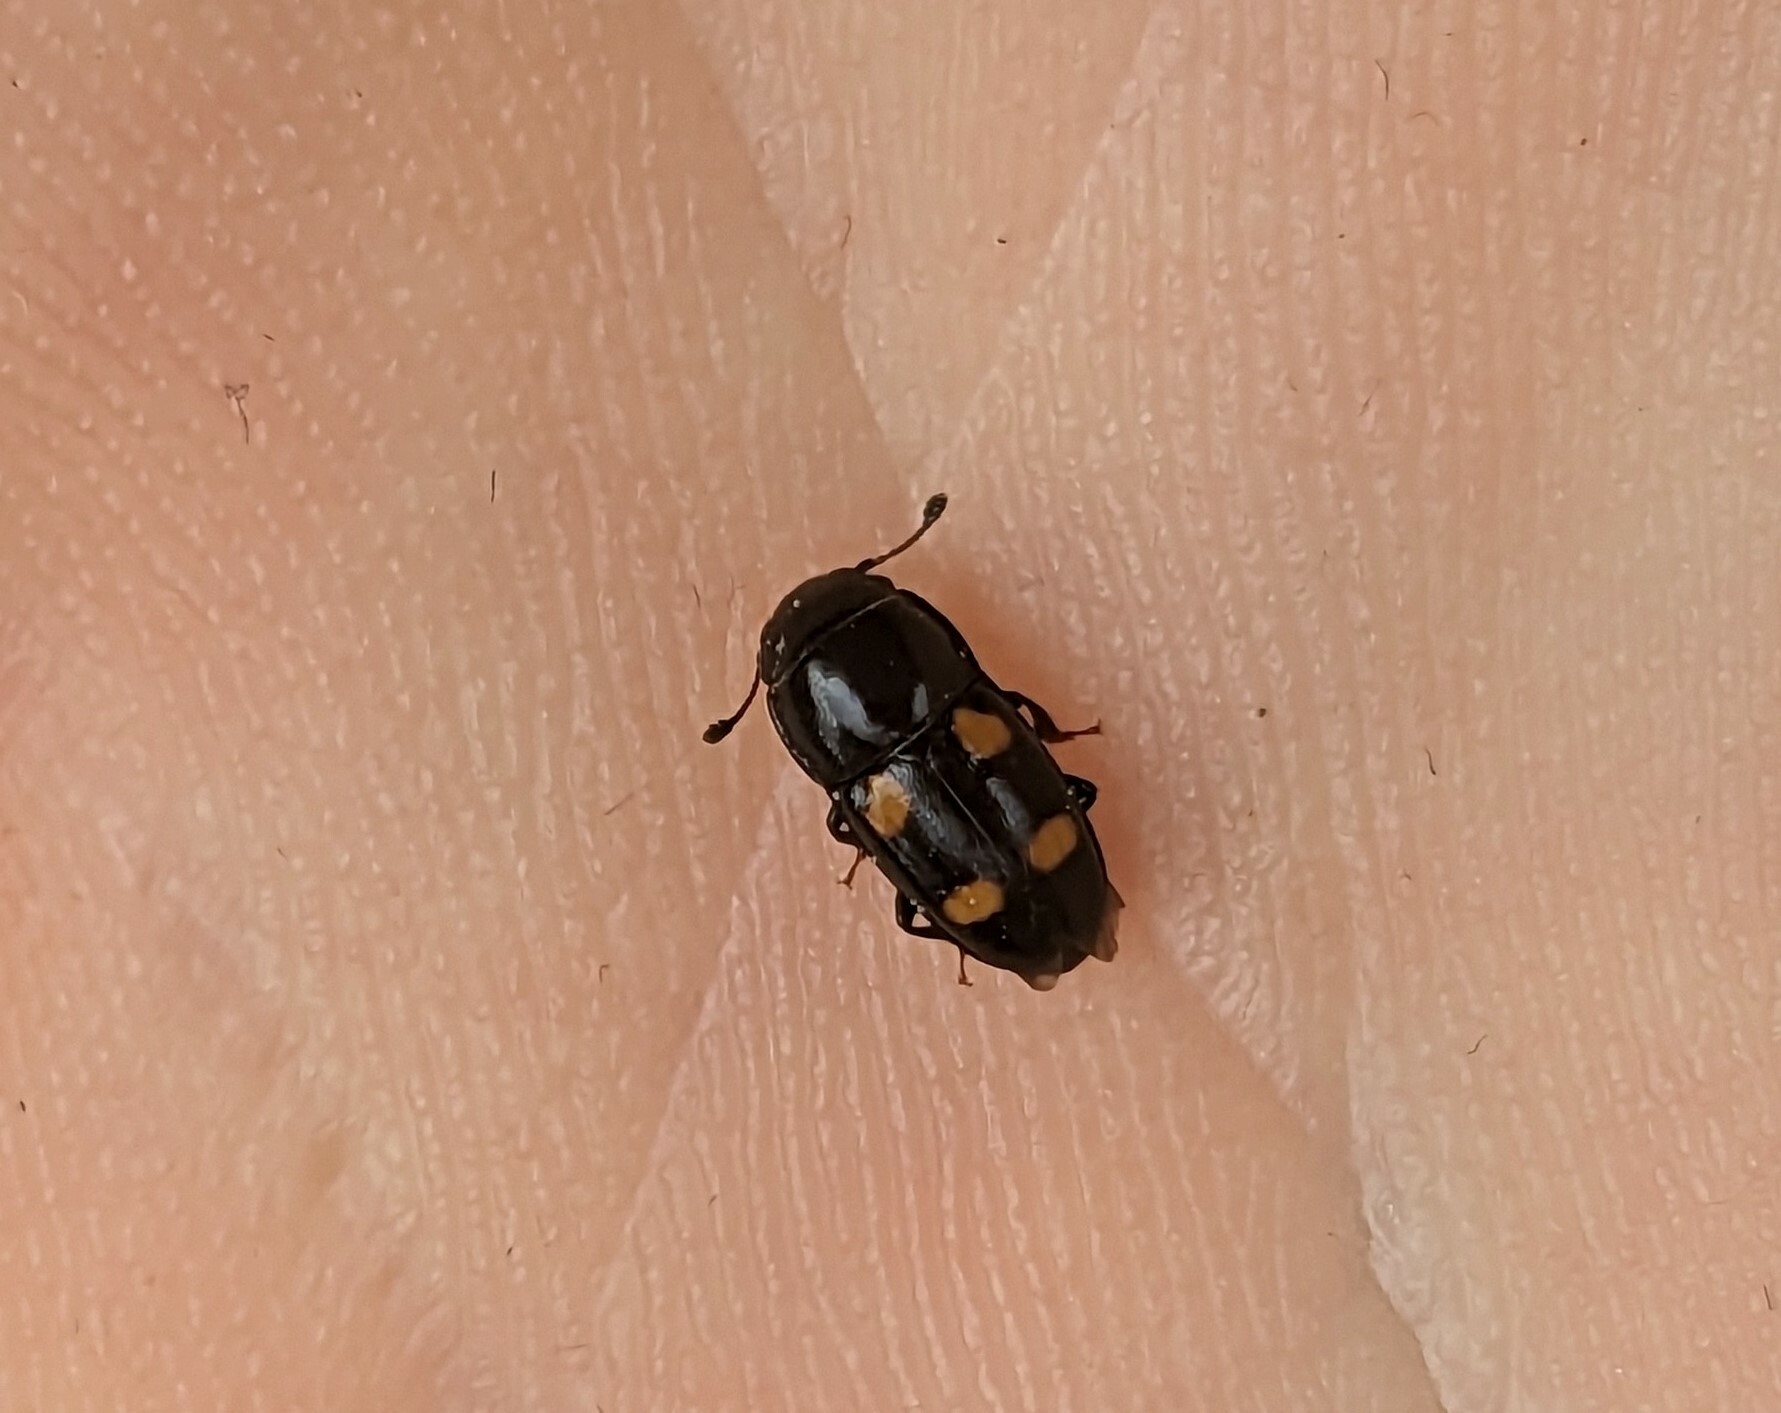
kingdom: Animalia
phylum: Arthropoda
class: Insecta
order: Coleoptera
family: Nitidulidae
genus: Glischrochilus
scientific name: Glischrochilus hortensis
